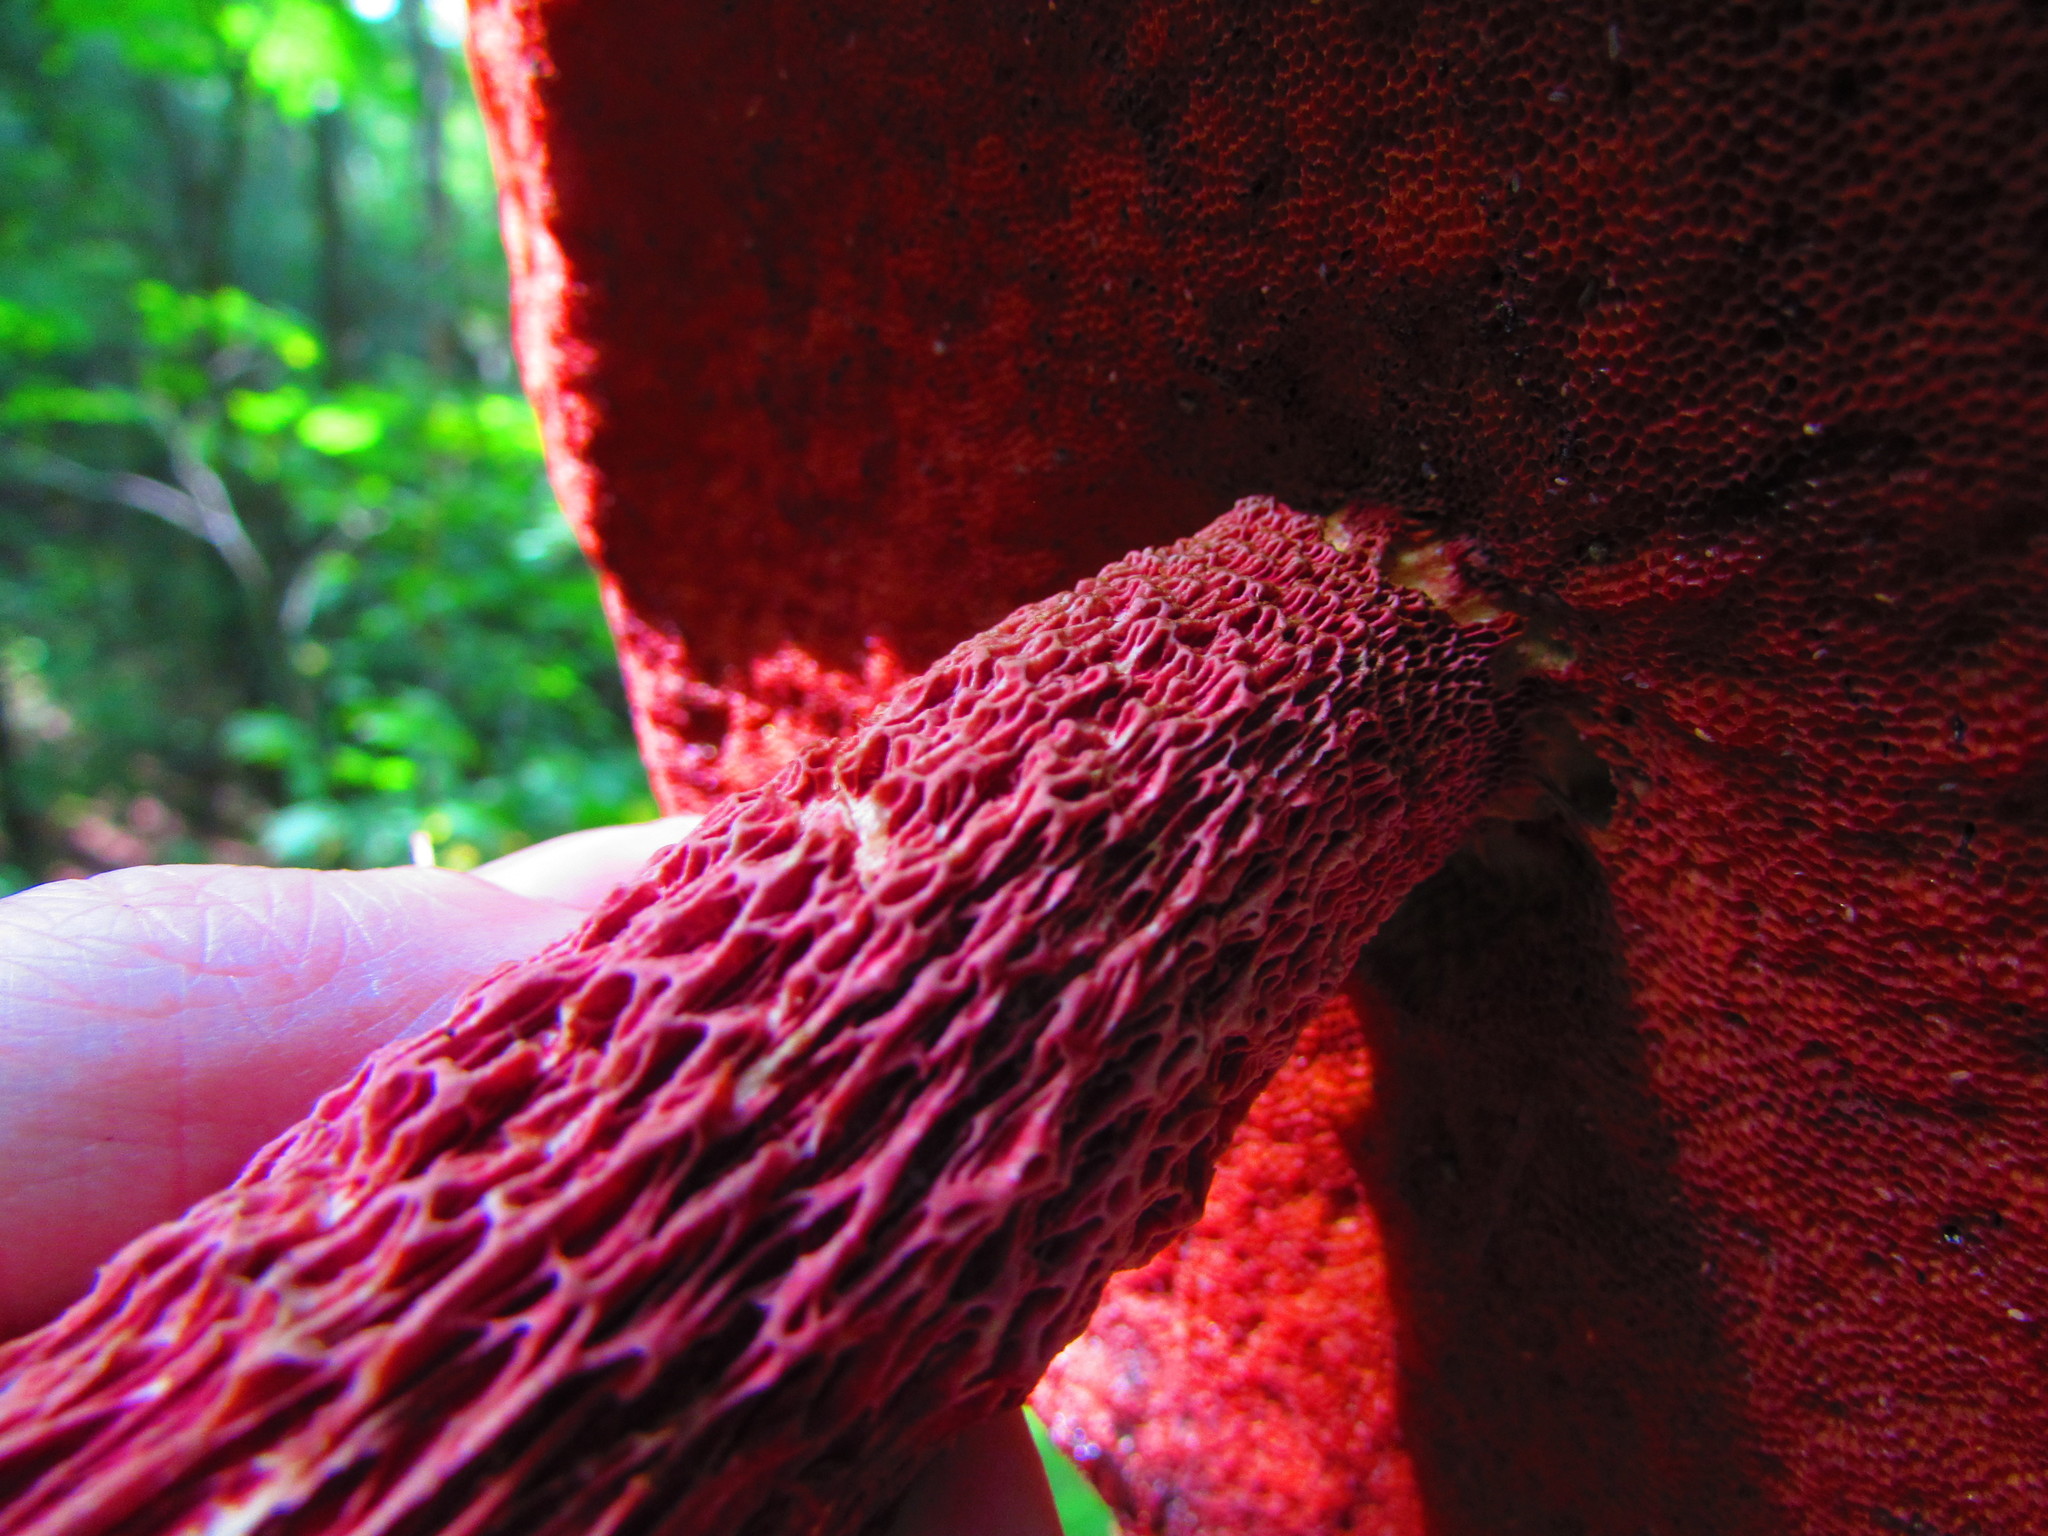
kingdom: Fungi
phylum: Basidiomycota
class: Agaricomycetes
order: Boletales
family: Boletaceae
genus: Butyriboletus
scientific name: Butyriboletus frostii
